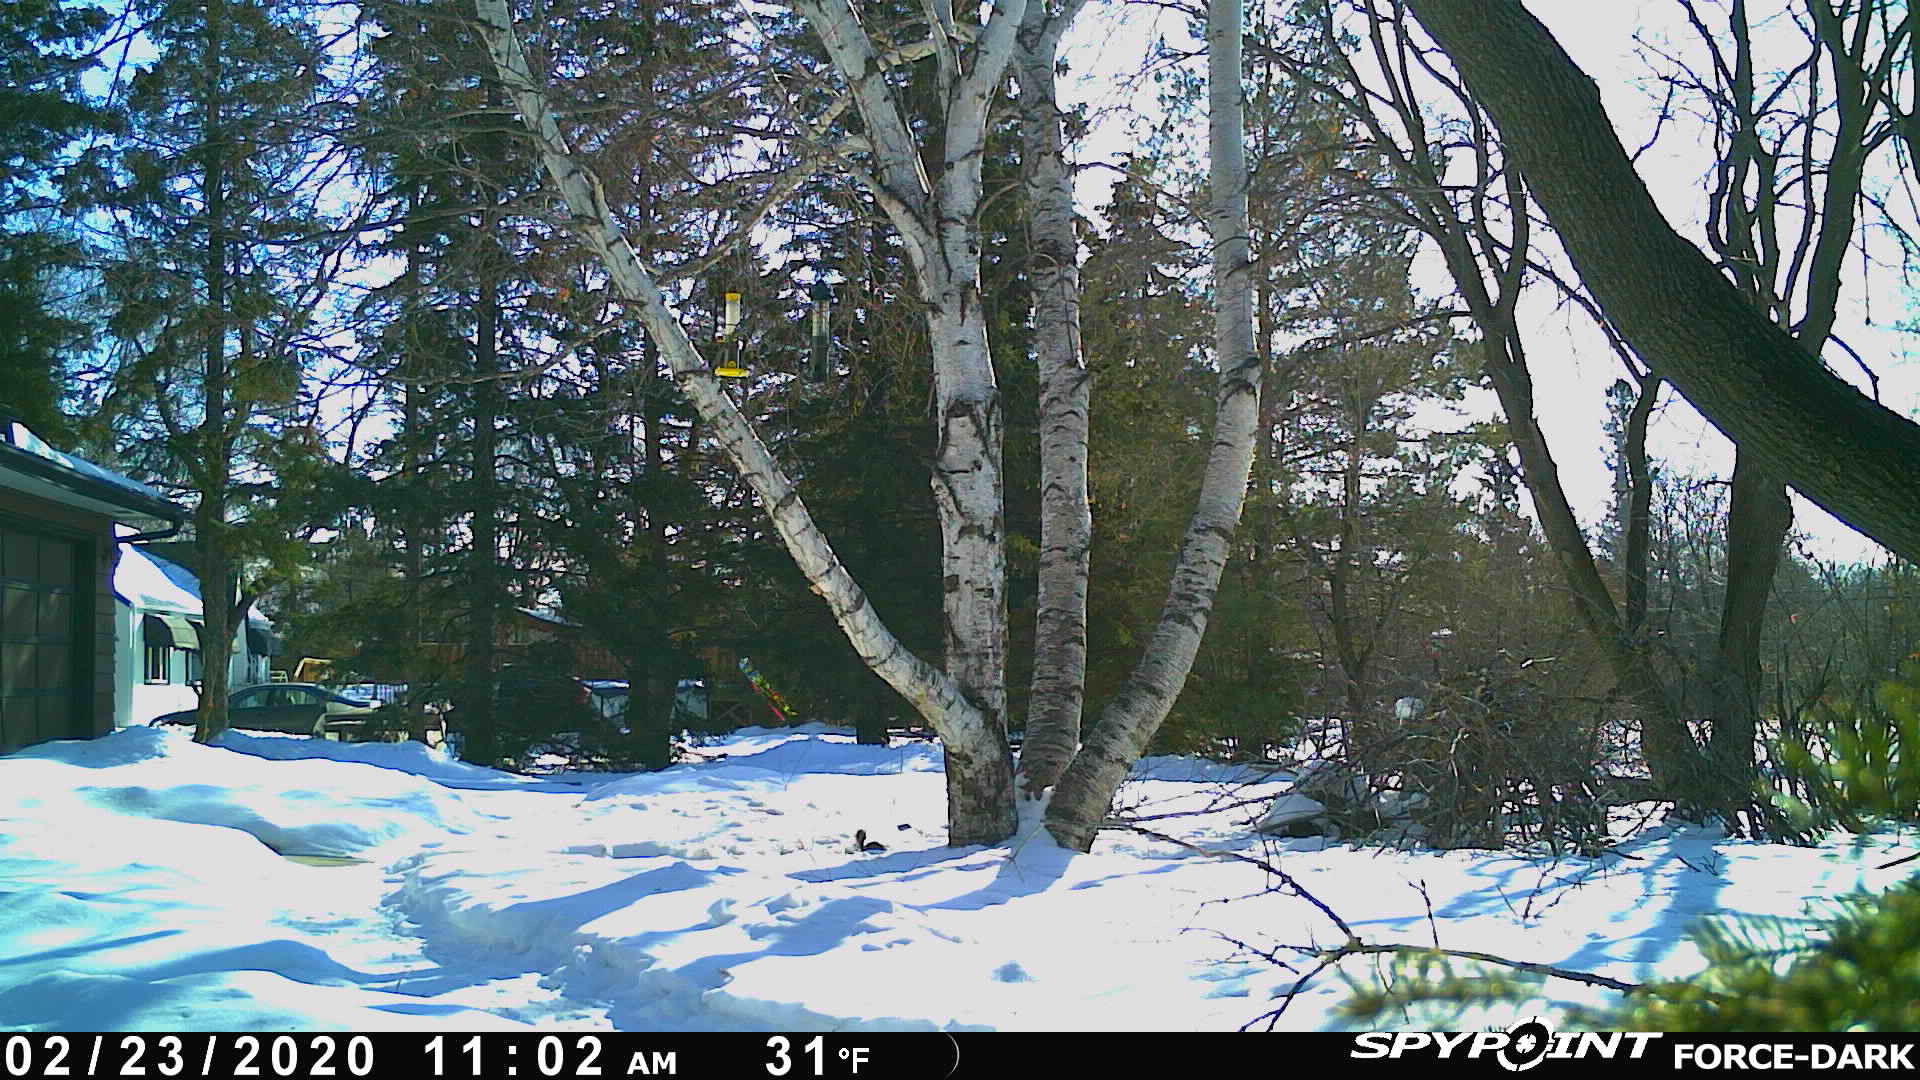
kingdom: Animalia
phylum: Chordata
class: Mammalia
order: Rodentia
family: Sciuridae
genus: Tamiasciurus
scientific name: Tamiasciurus hudsonicus
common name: Red squirrel
